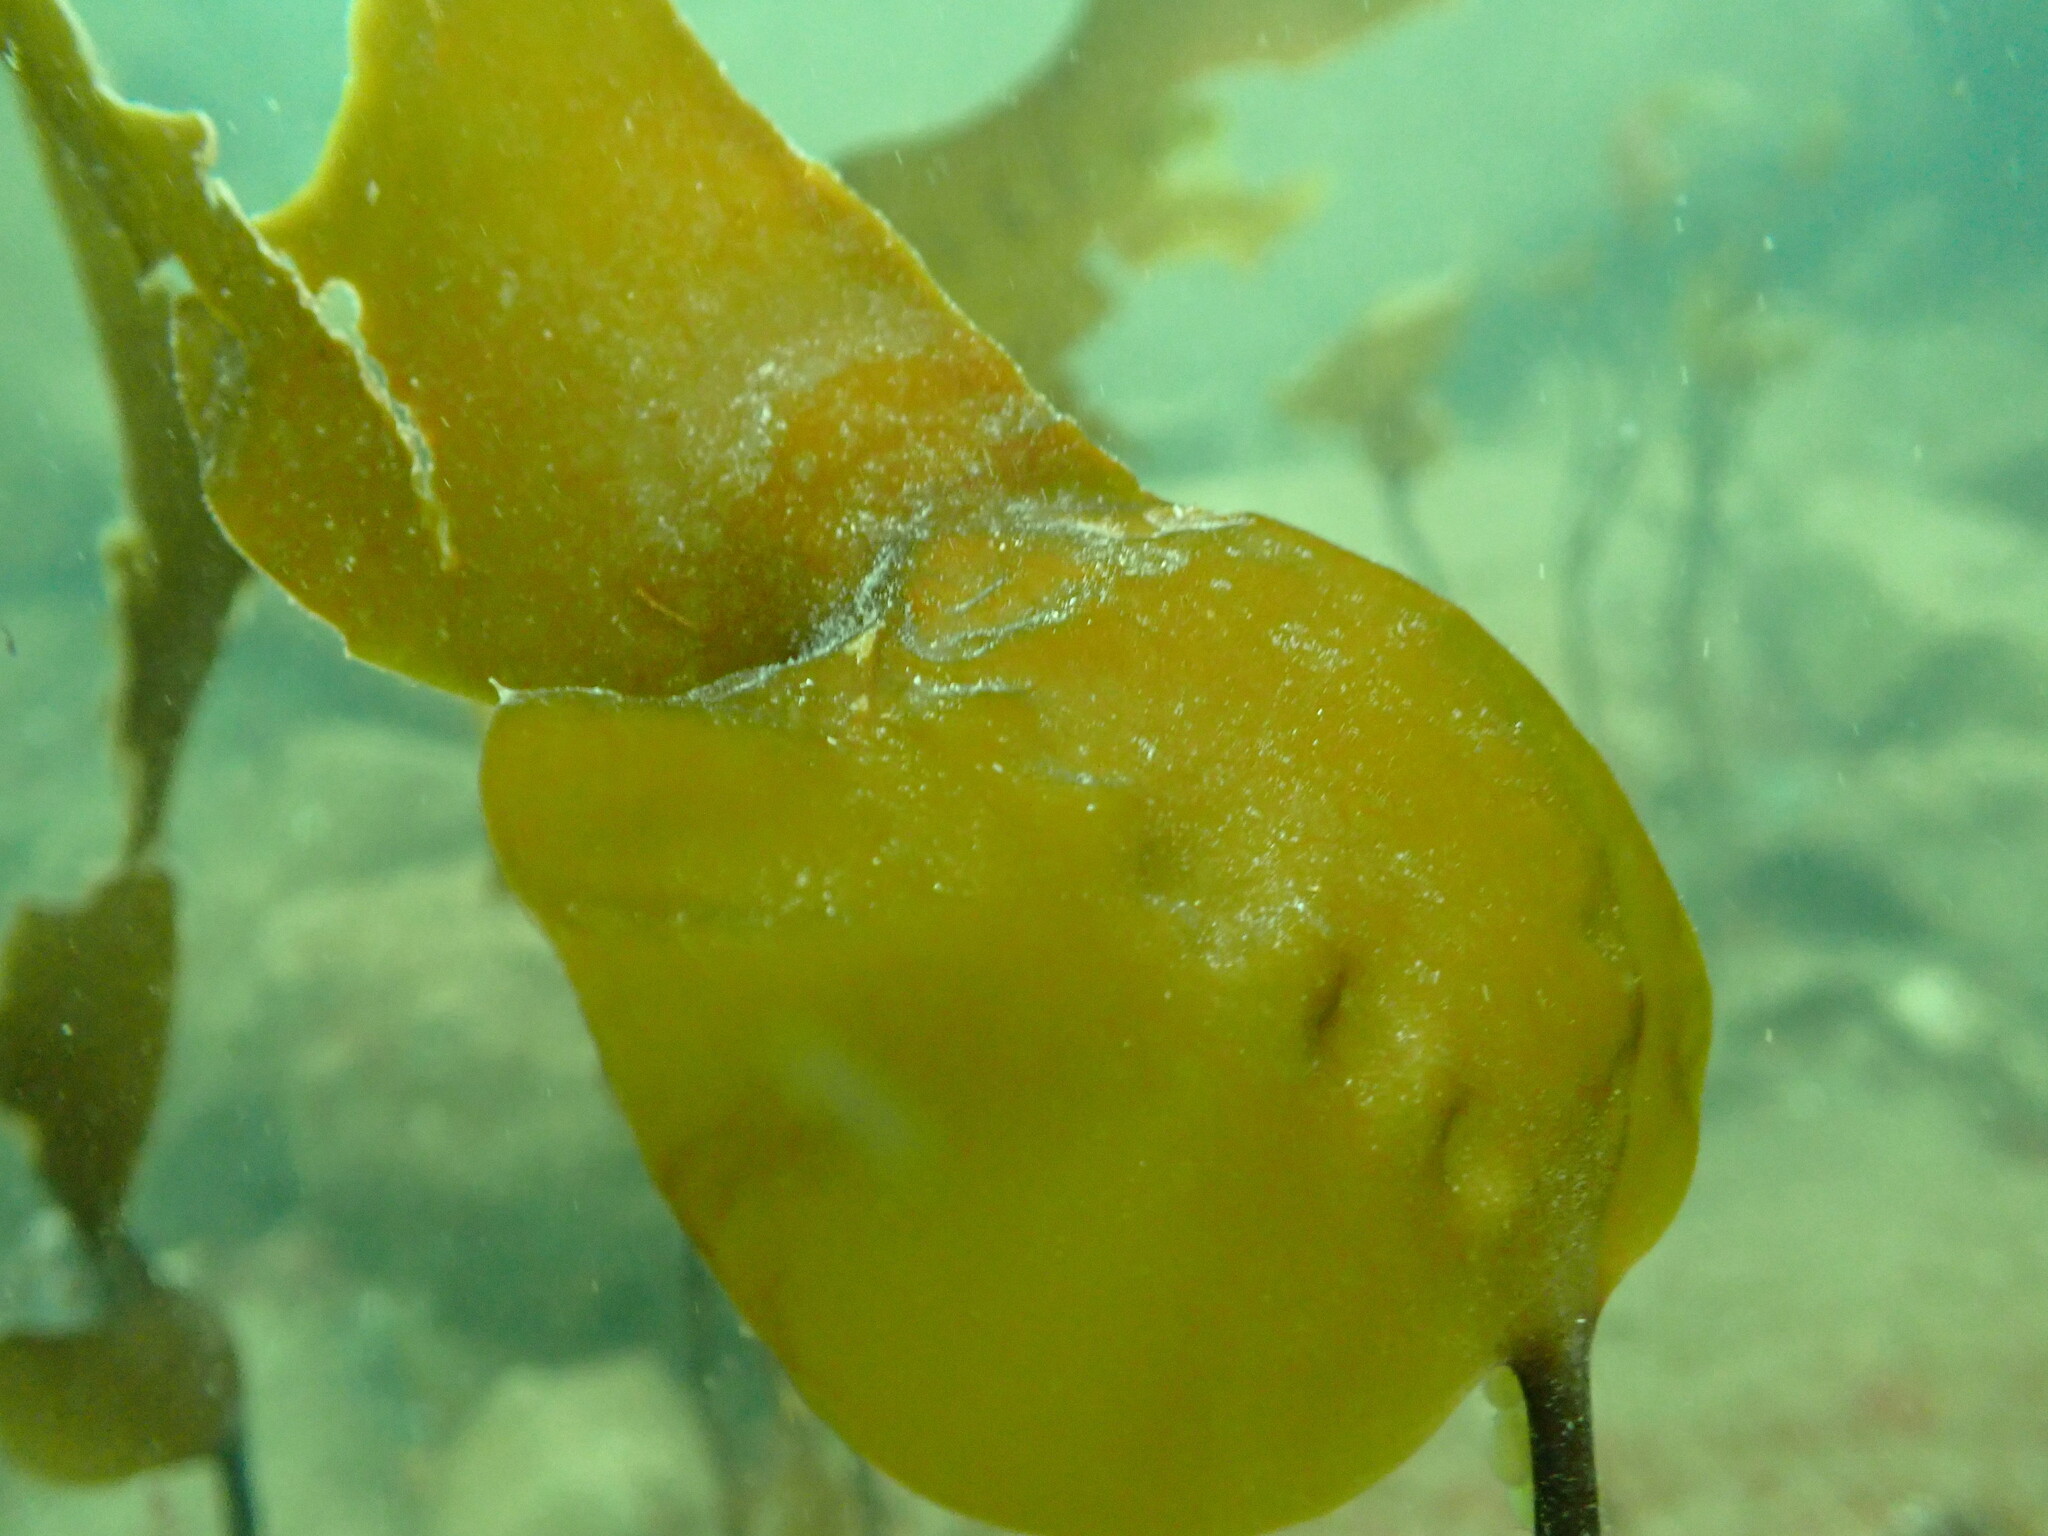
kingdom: Chromista
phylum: Ochrophyta
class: Phaeophyceae
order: Laminariales
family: Laminariaceae
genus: Saccharina
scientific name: Saccharina latissima
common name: Poor man's weather glass
